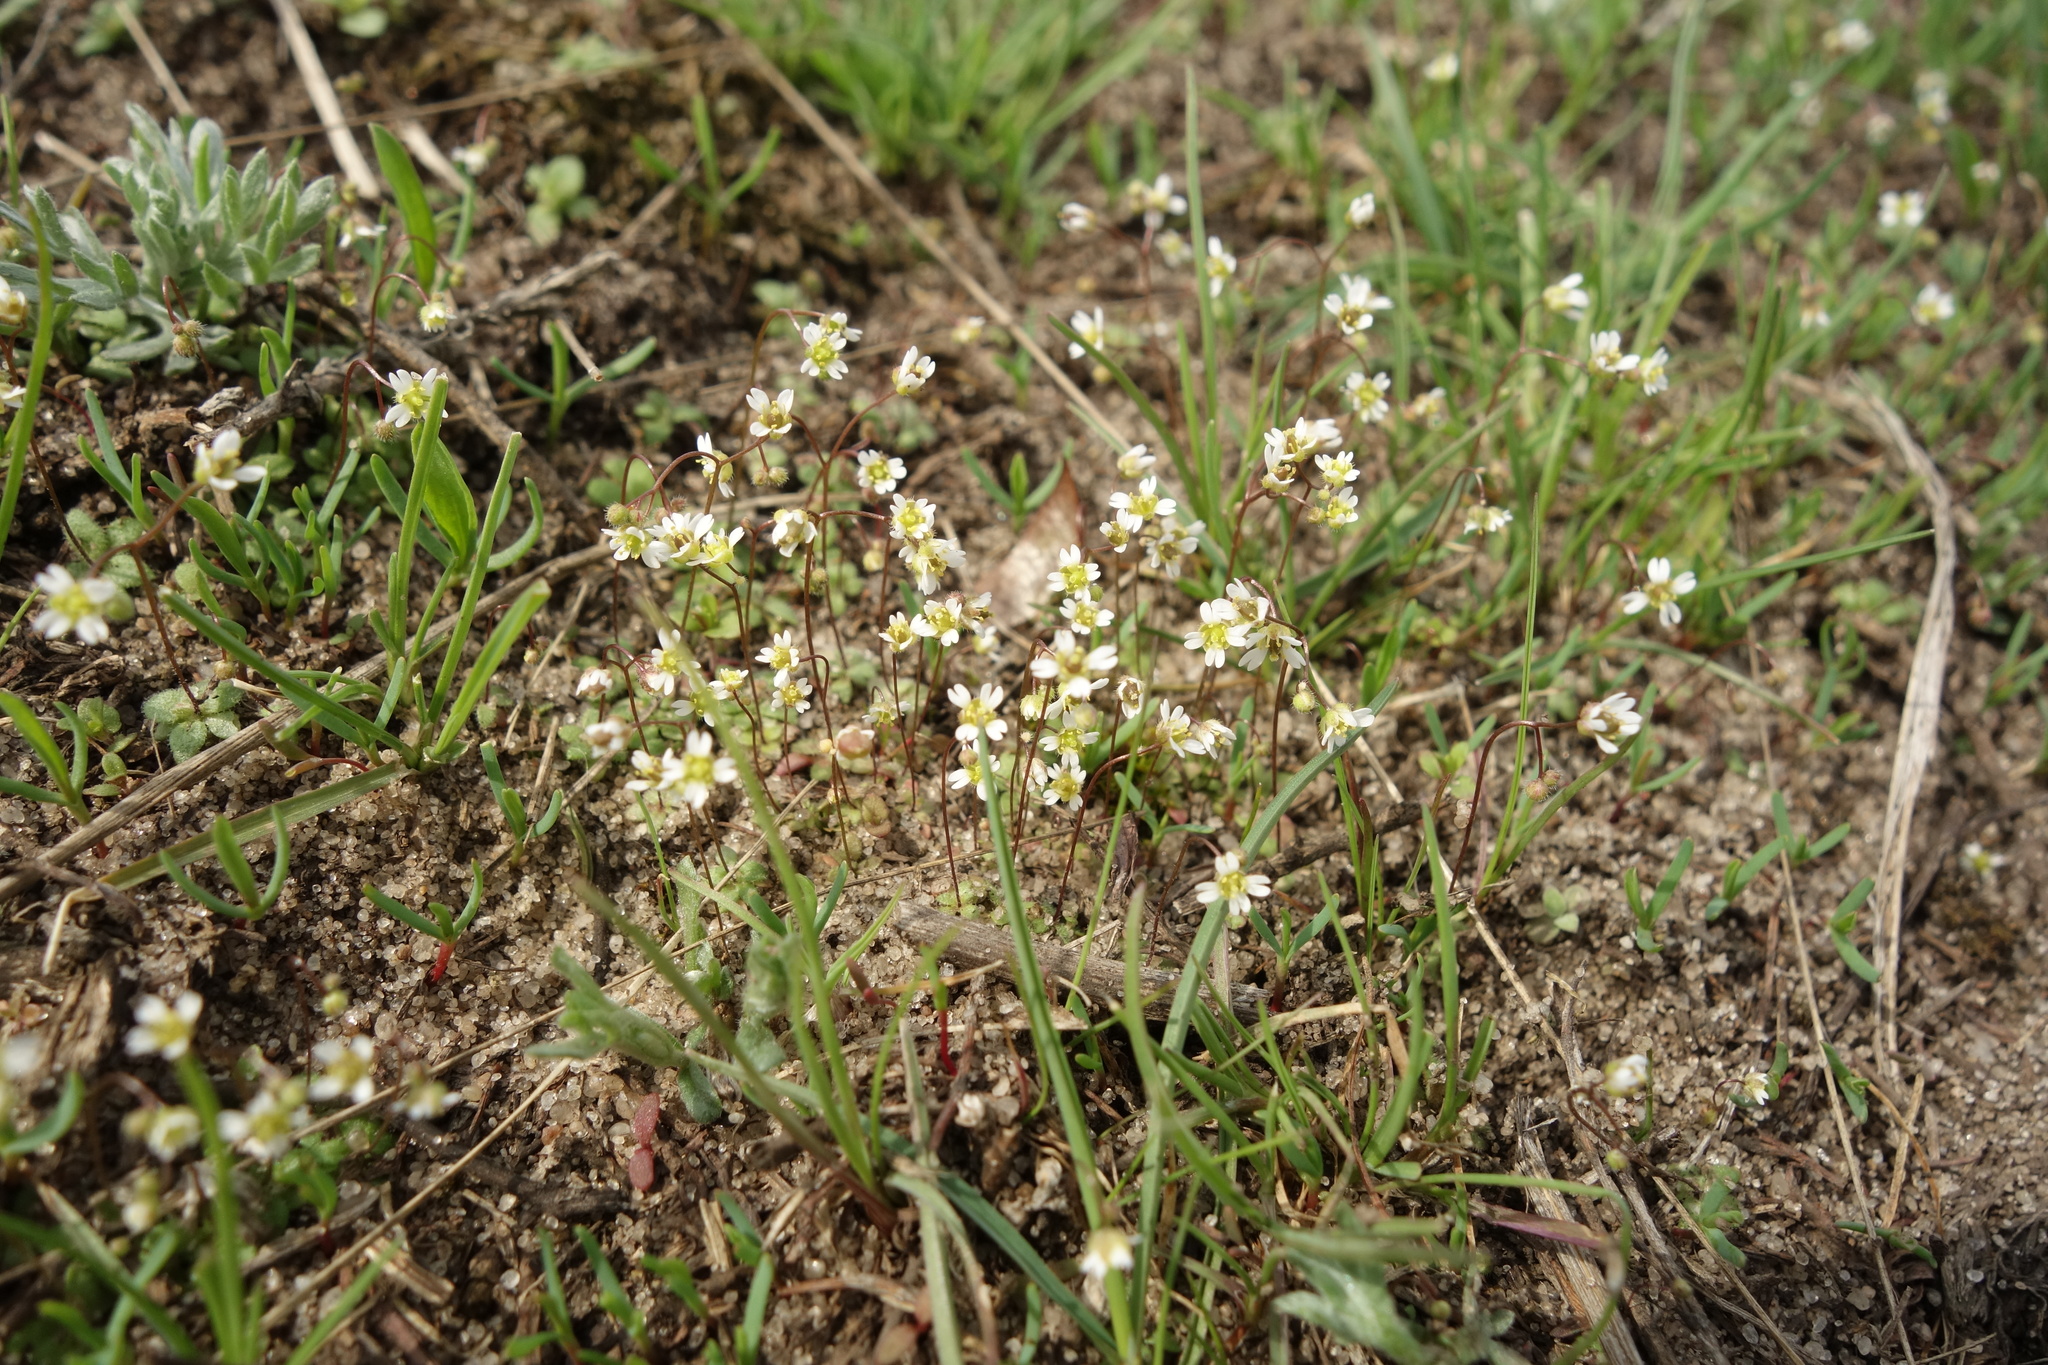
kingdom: Plantae
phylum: Tracheophyta
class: Magnoliopsida
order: Brassicales
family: Brassicaceae
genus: Draba
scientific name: Draba verna
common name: Spring draba
